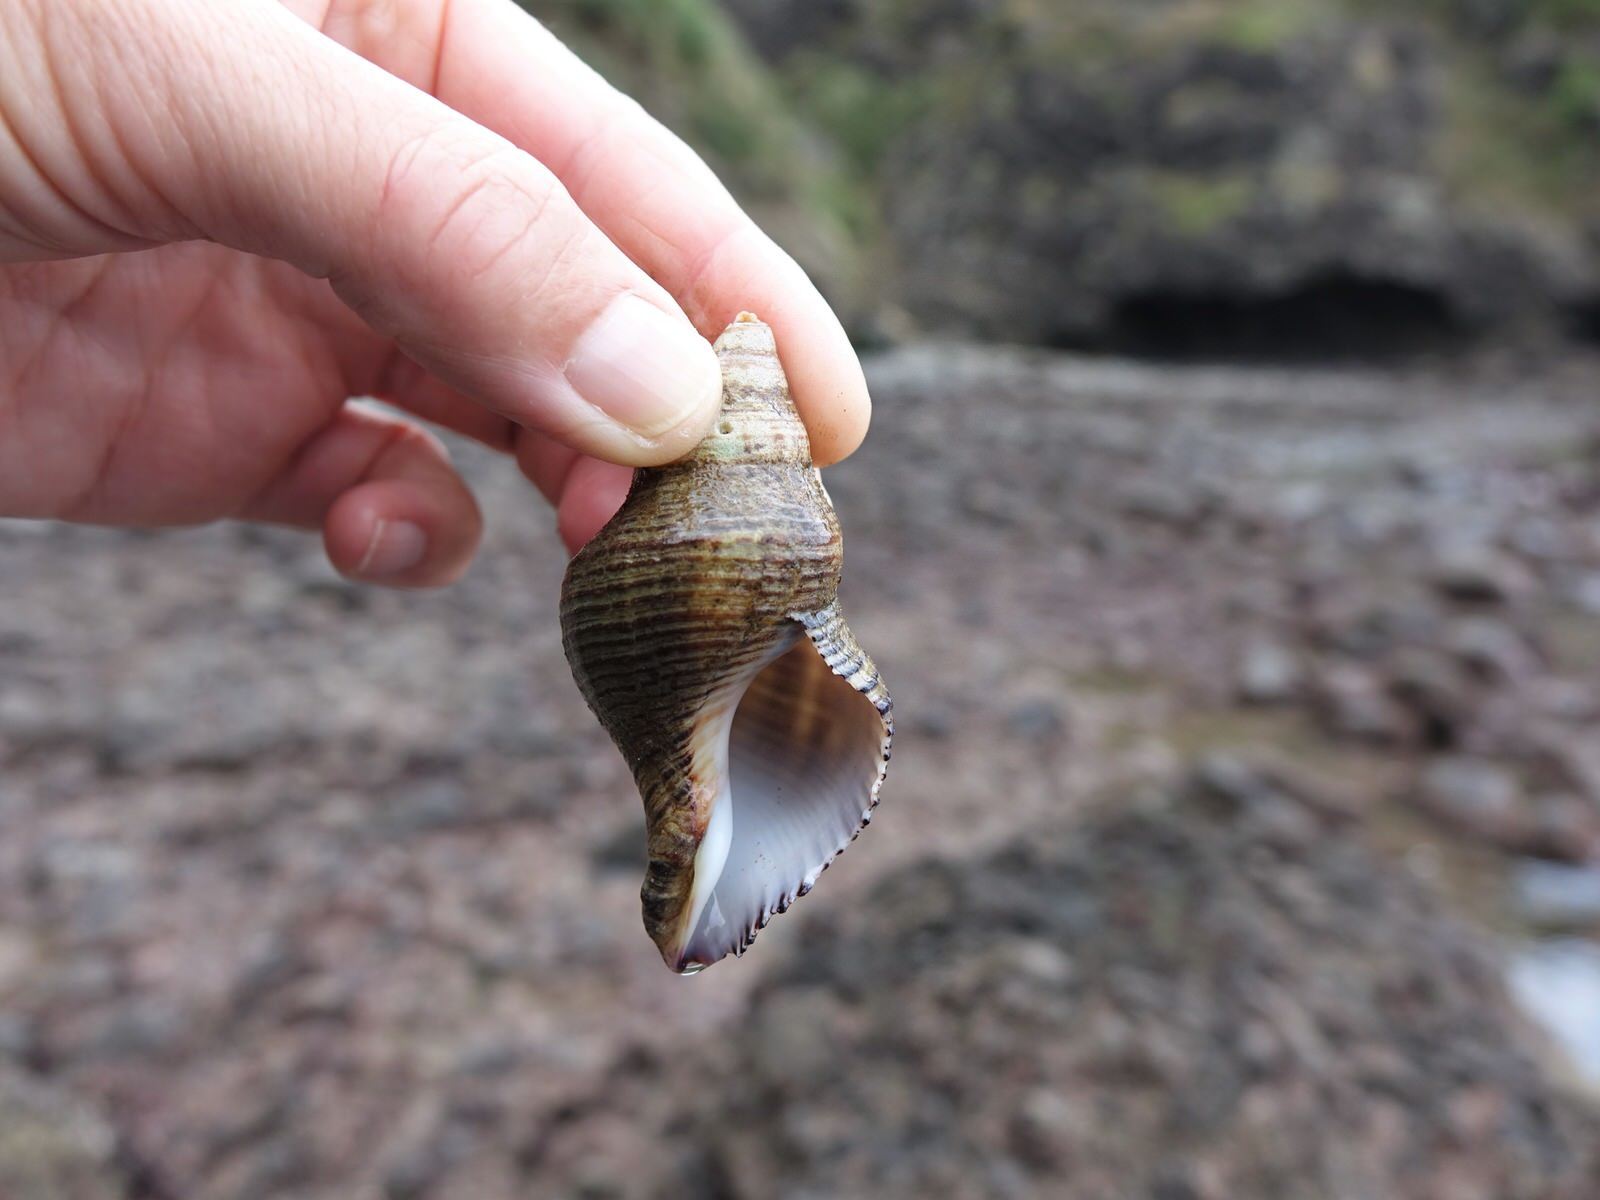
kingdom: Animalia
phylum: Mollusca
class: Gastropoda
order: Neogastropoda
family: Austrosiphonidae
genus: Penion
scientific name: Penion sulcatus
